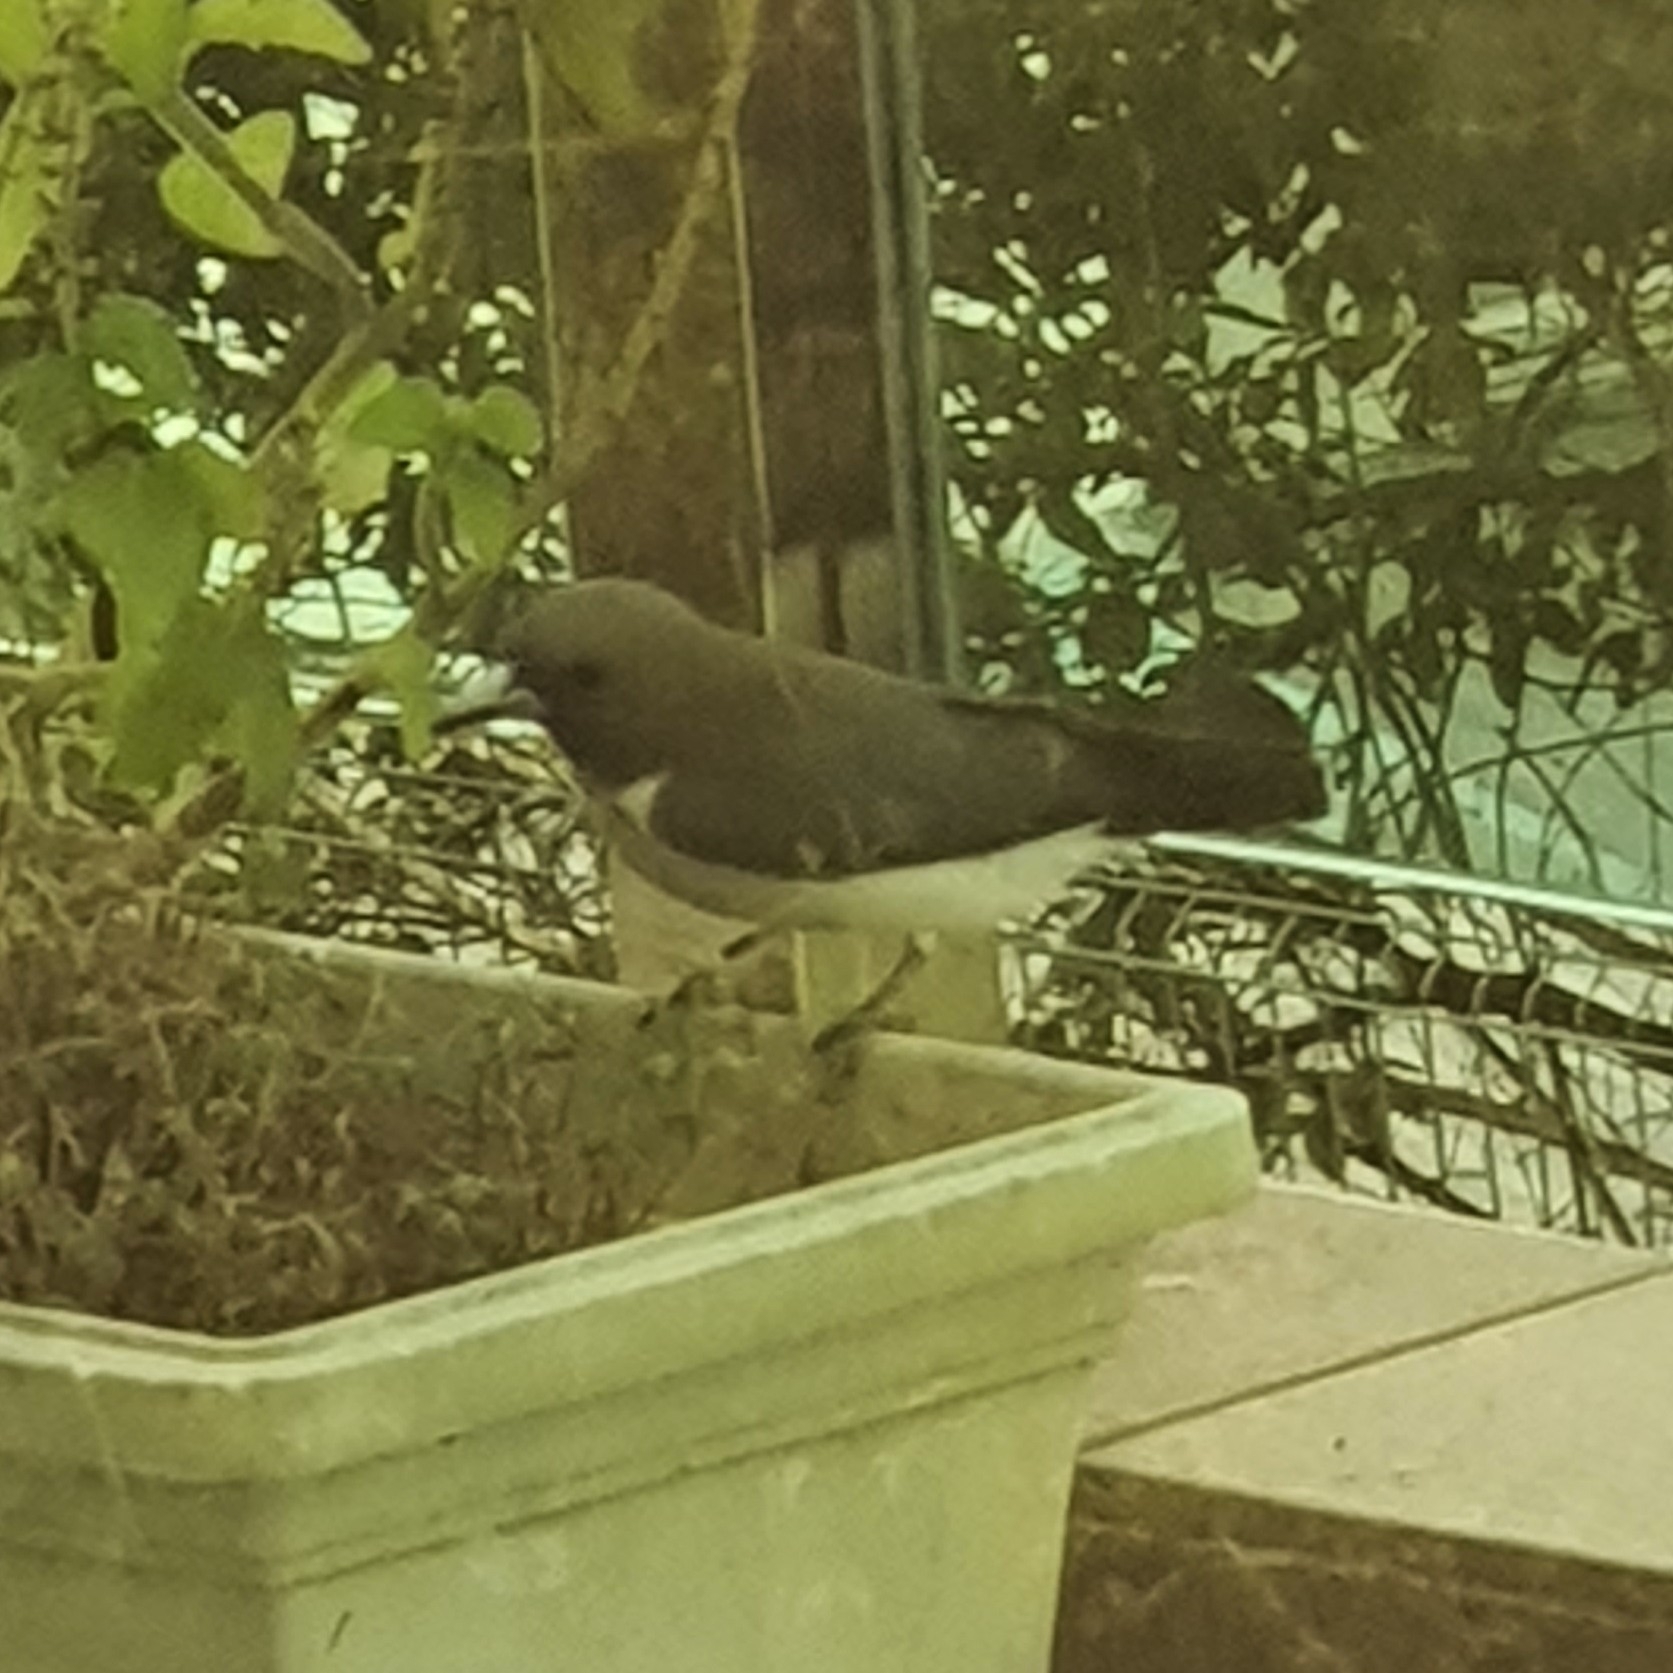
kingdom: Animalia
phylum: Chordata
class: Aves
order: Passeriformes
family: Artamidae
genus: Artamus
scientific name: Artamus leucoryn
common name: White-breasted woodswallow
